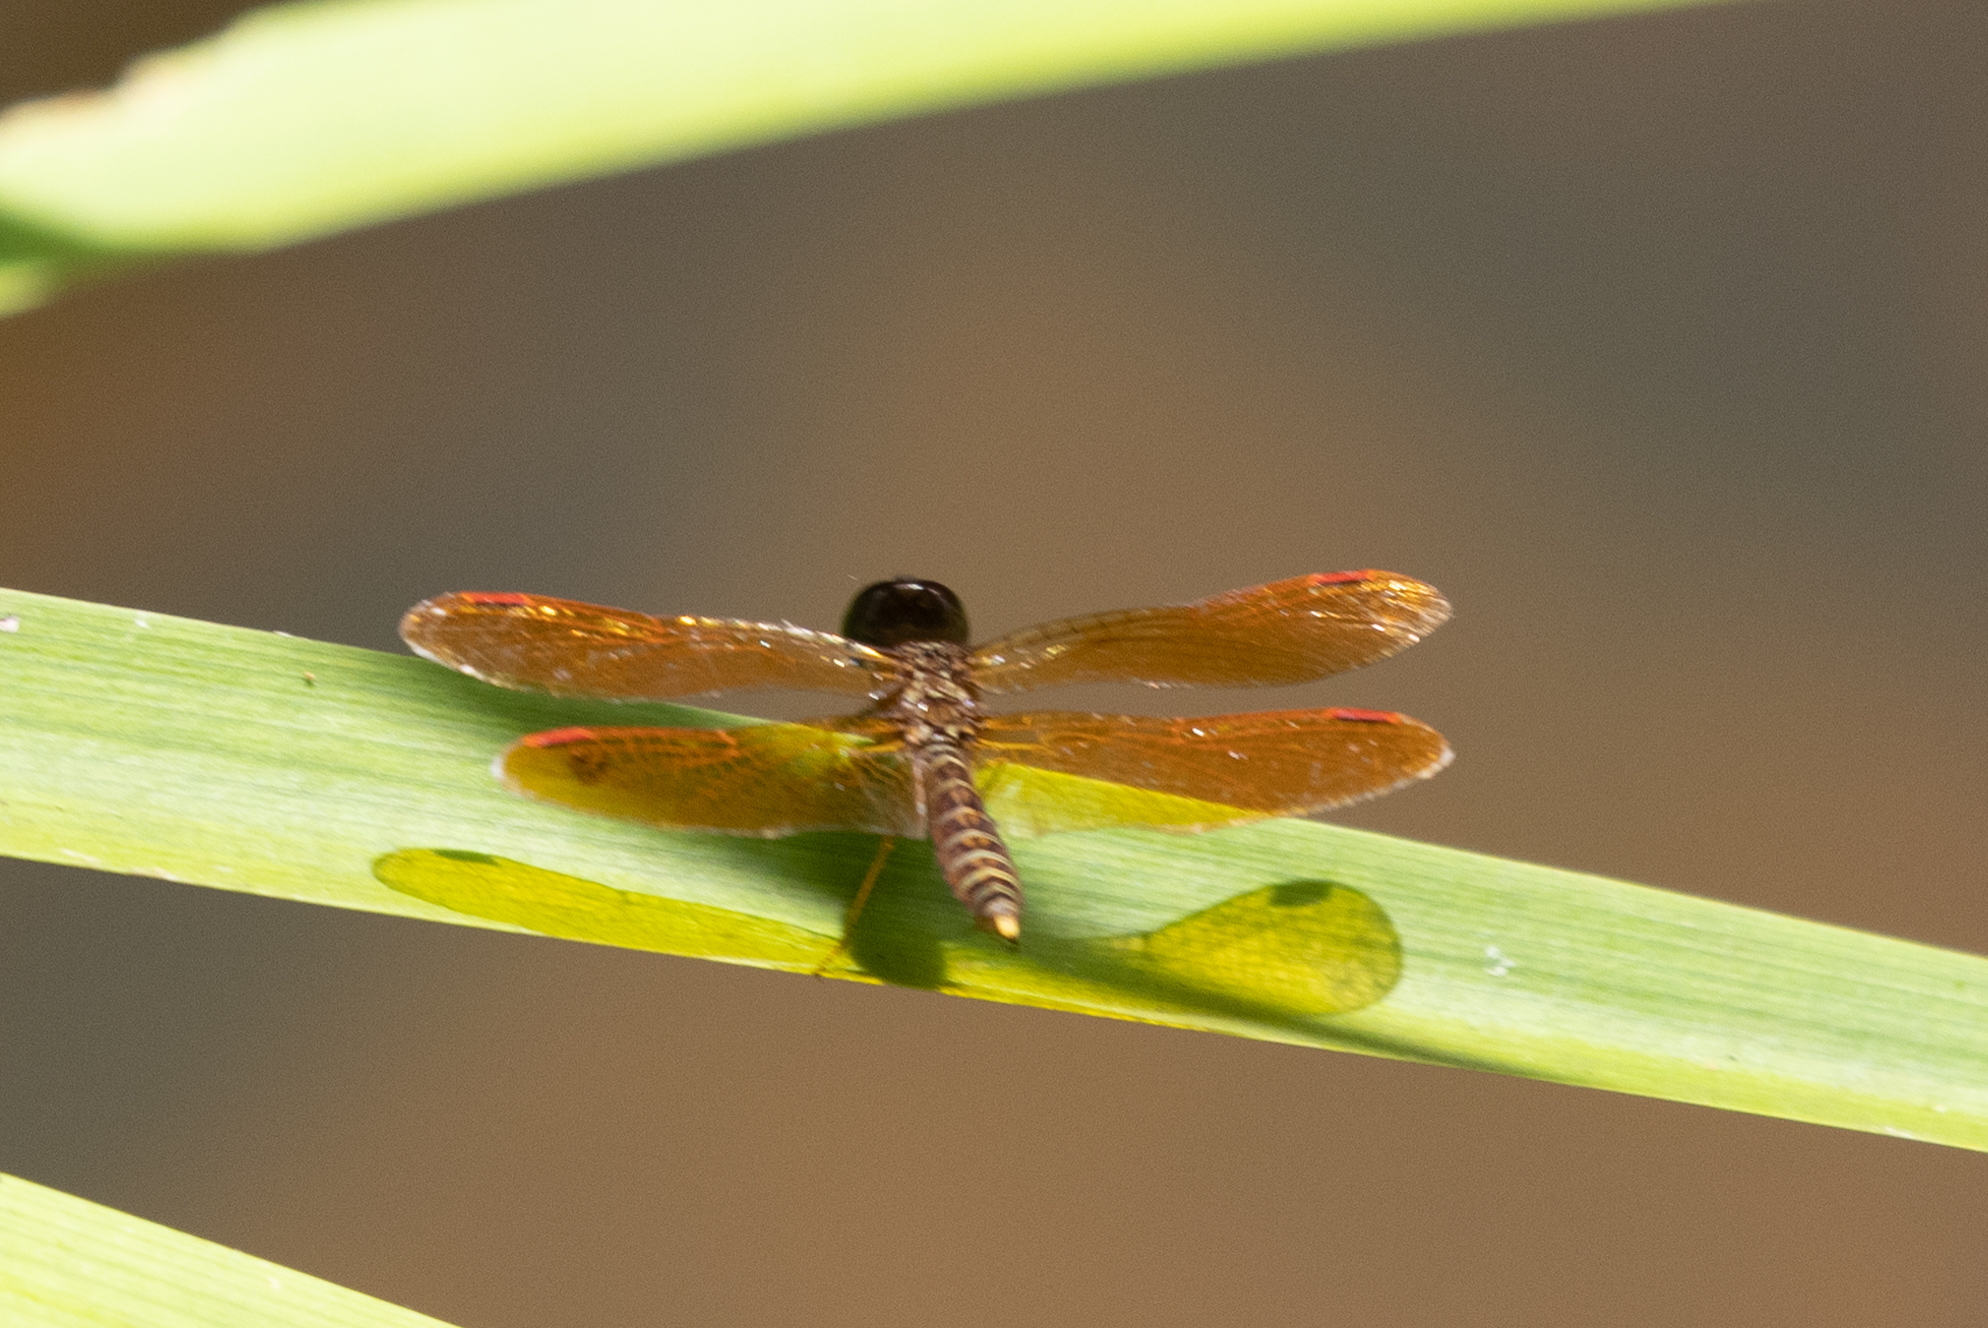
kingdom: Animalia
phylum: Arthropoda
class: Insecta
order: Odonata
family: Libellulidae
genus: Perithemis
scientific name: Perithemis tenera
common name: Eastern amberwing
